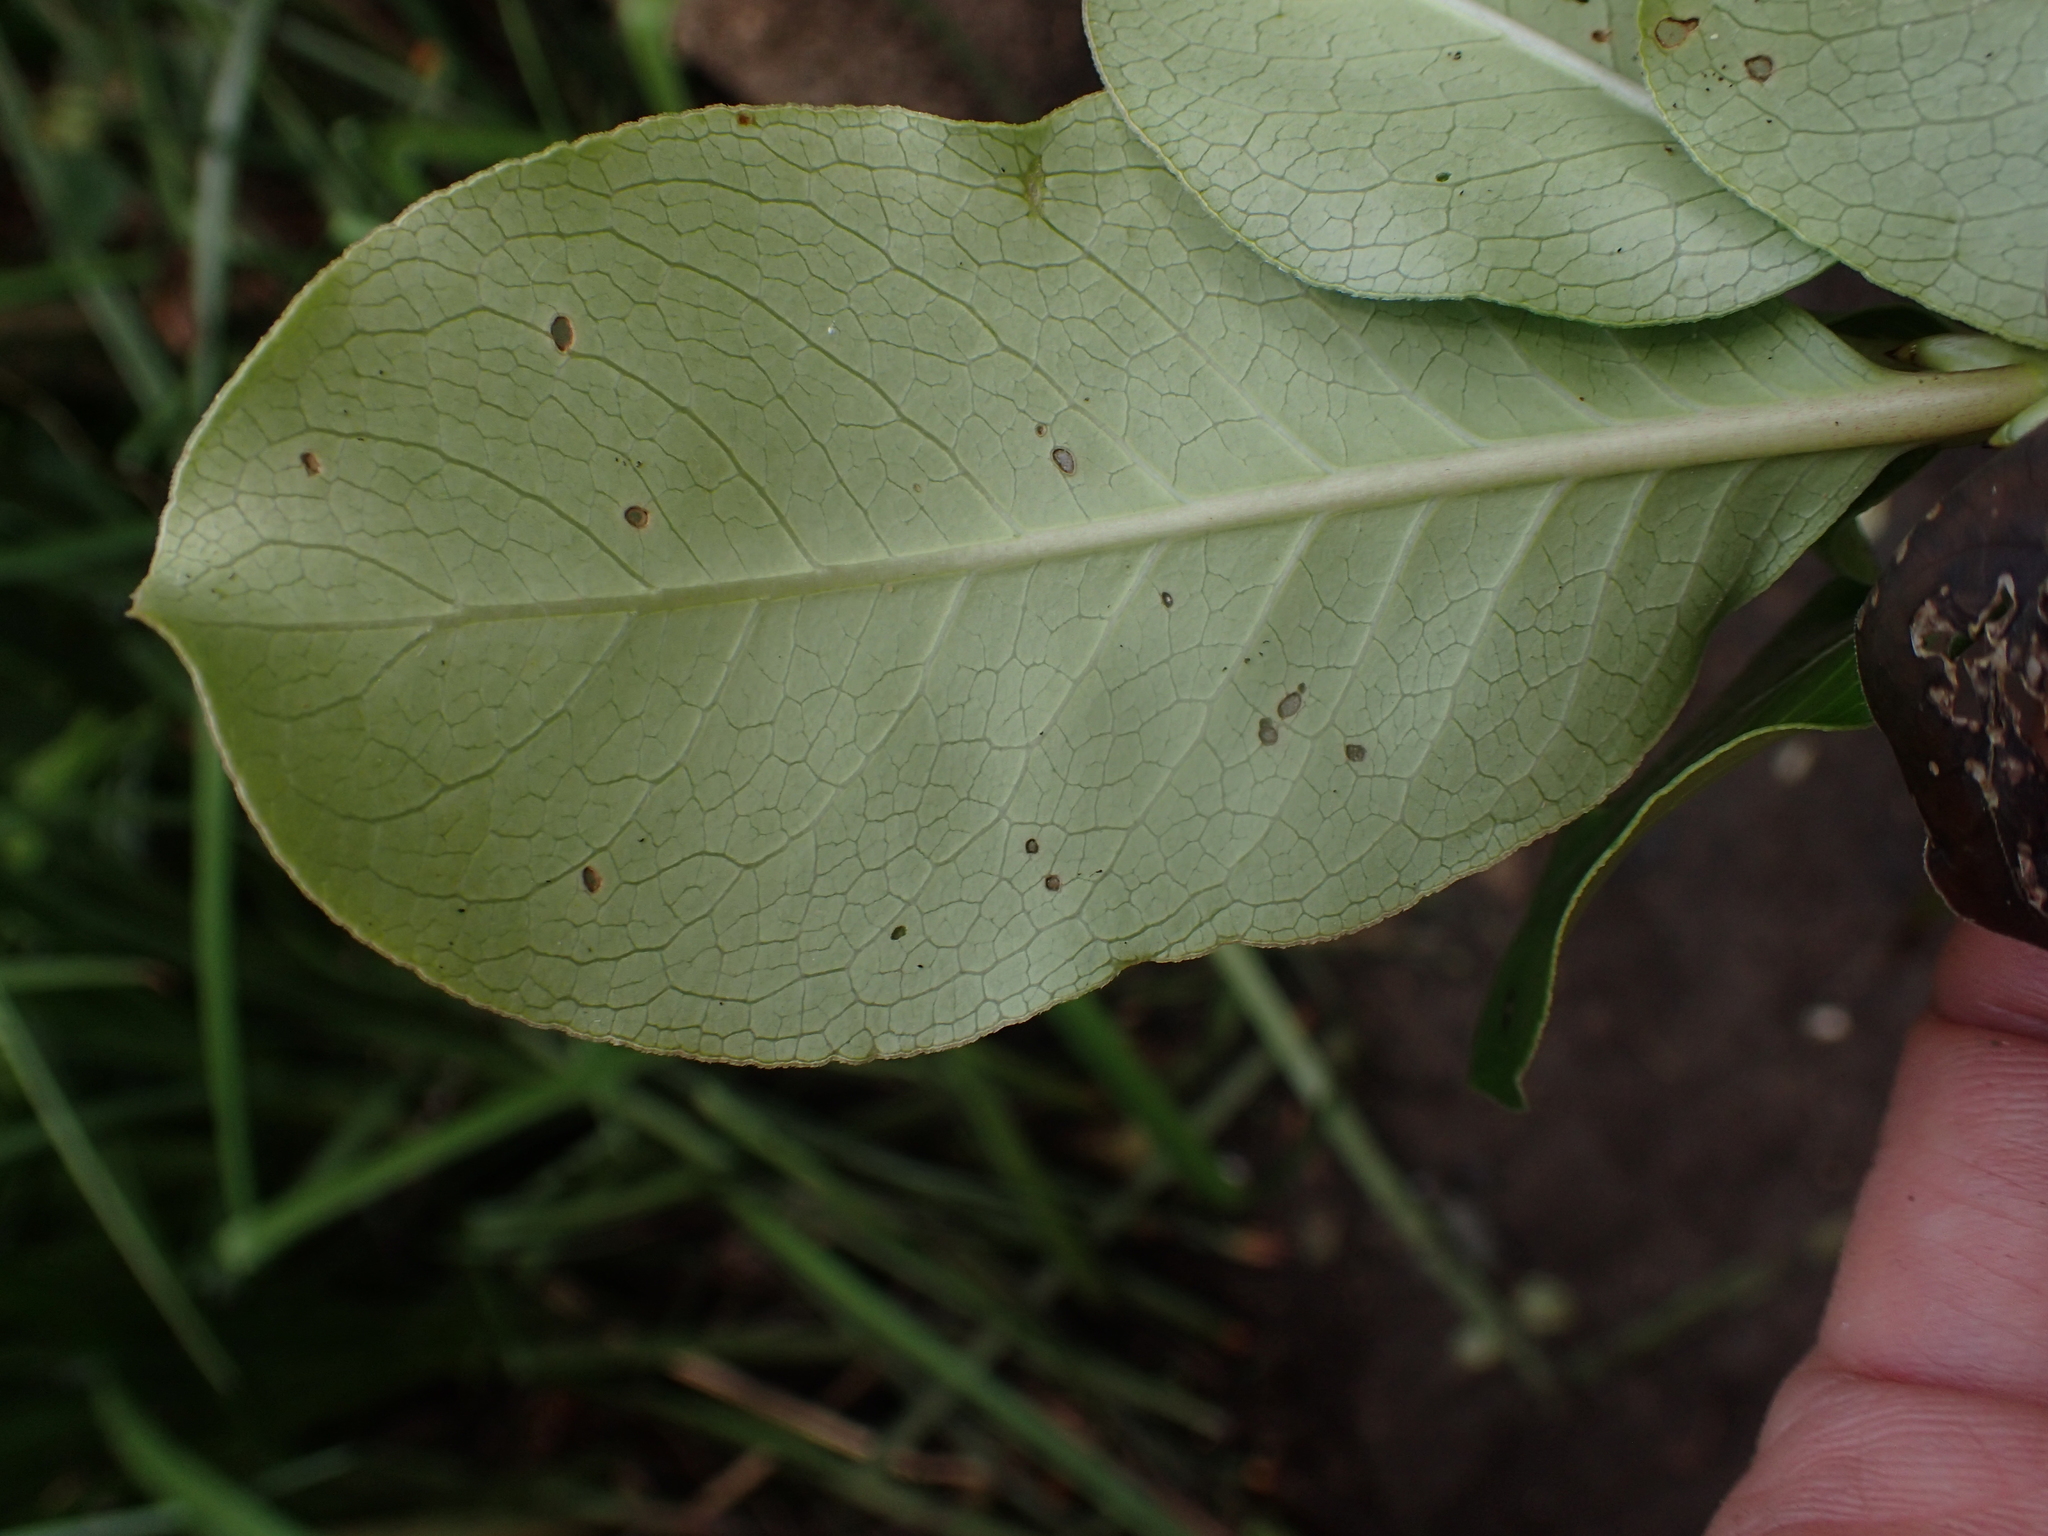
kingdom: Plantae
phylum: Tracheophyta
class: Magnoliopsida
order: Gentianales
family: Rubiaceae
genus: Coprosma
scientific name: Coprosma robusta
